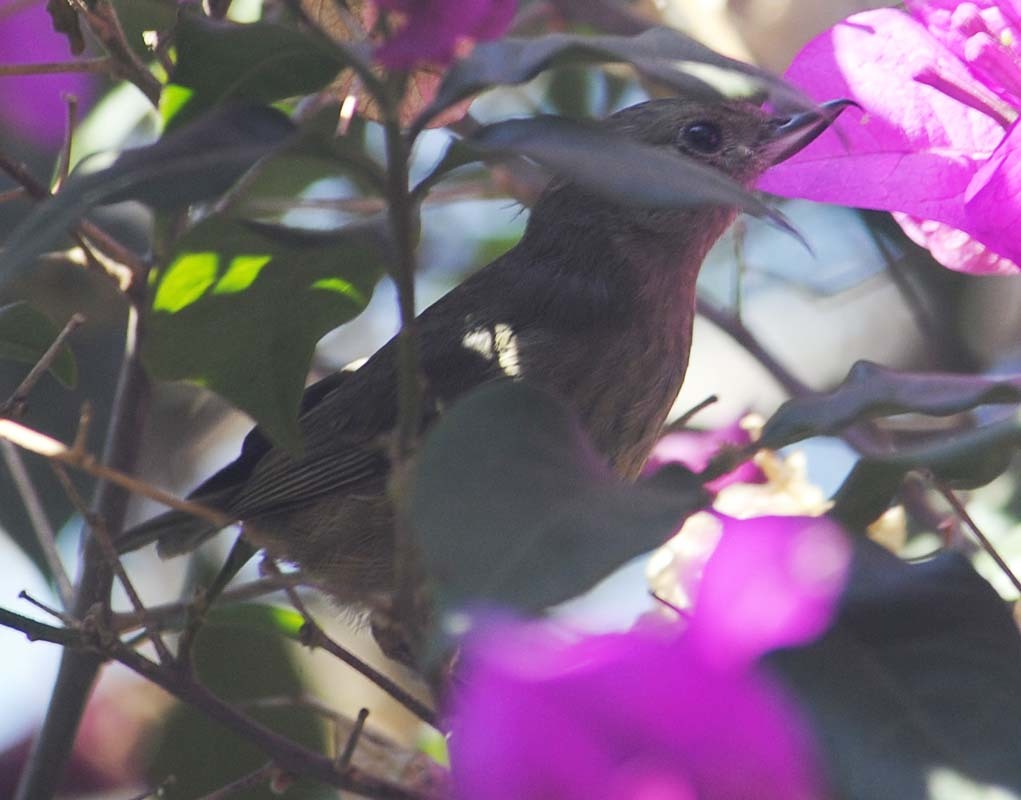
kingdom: Animalia
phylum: Chordata
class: Aves
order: Passeriformes
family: Thraupidae
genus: Diglossa
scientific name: Diglossa baritula
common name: Cinnamon-bellied flowerpiercer
